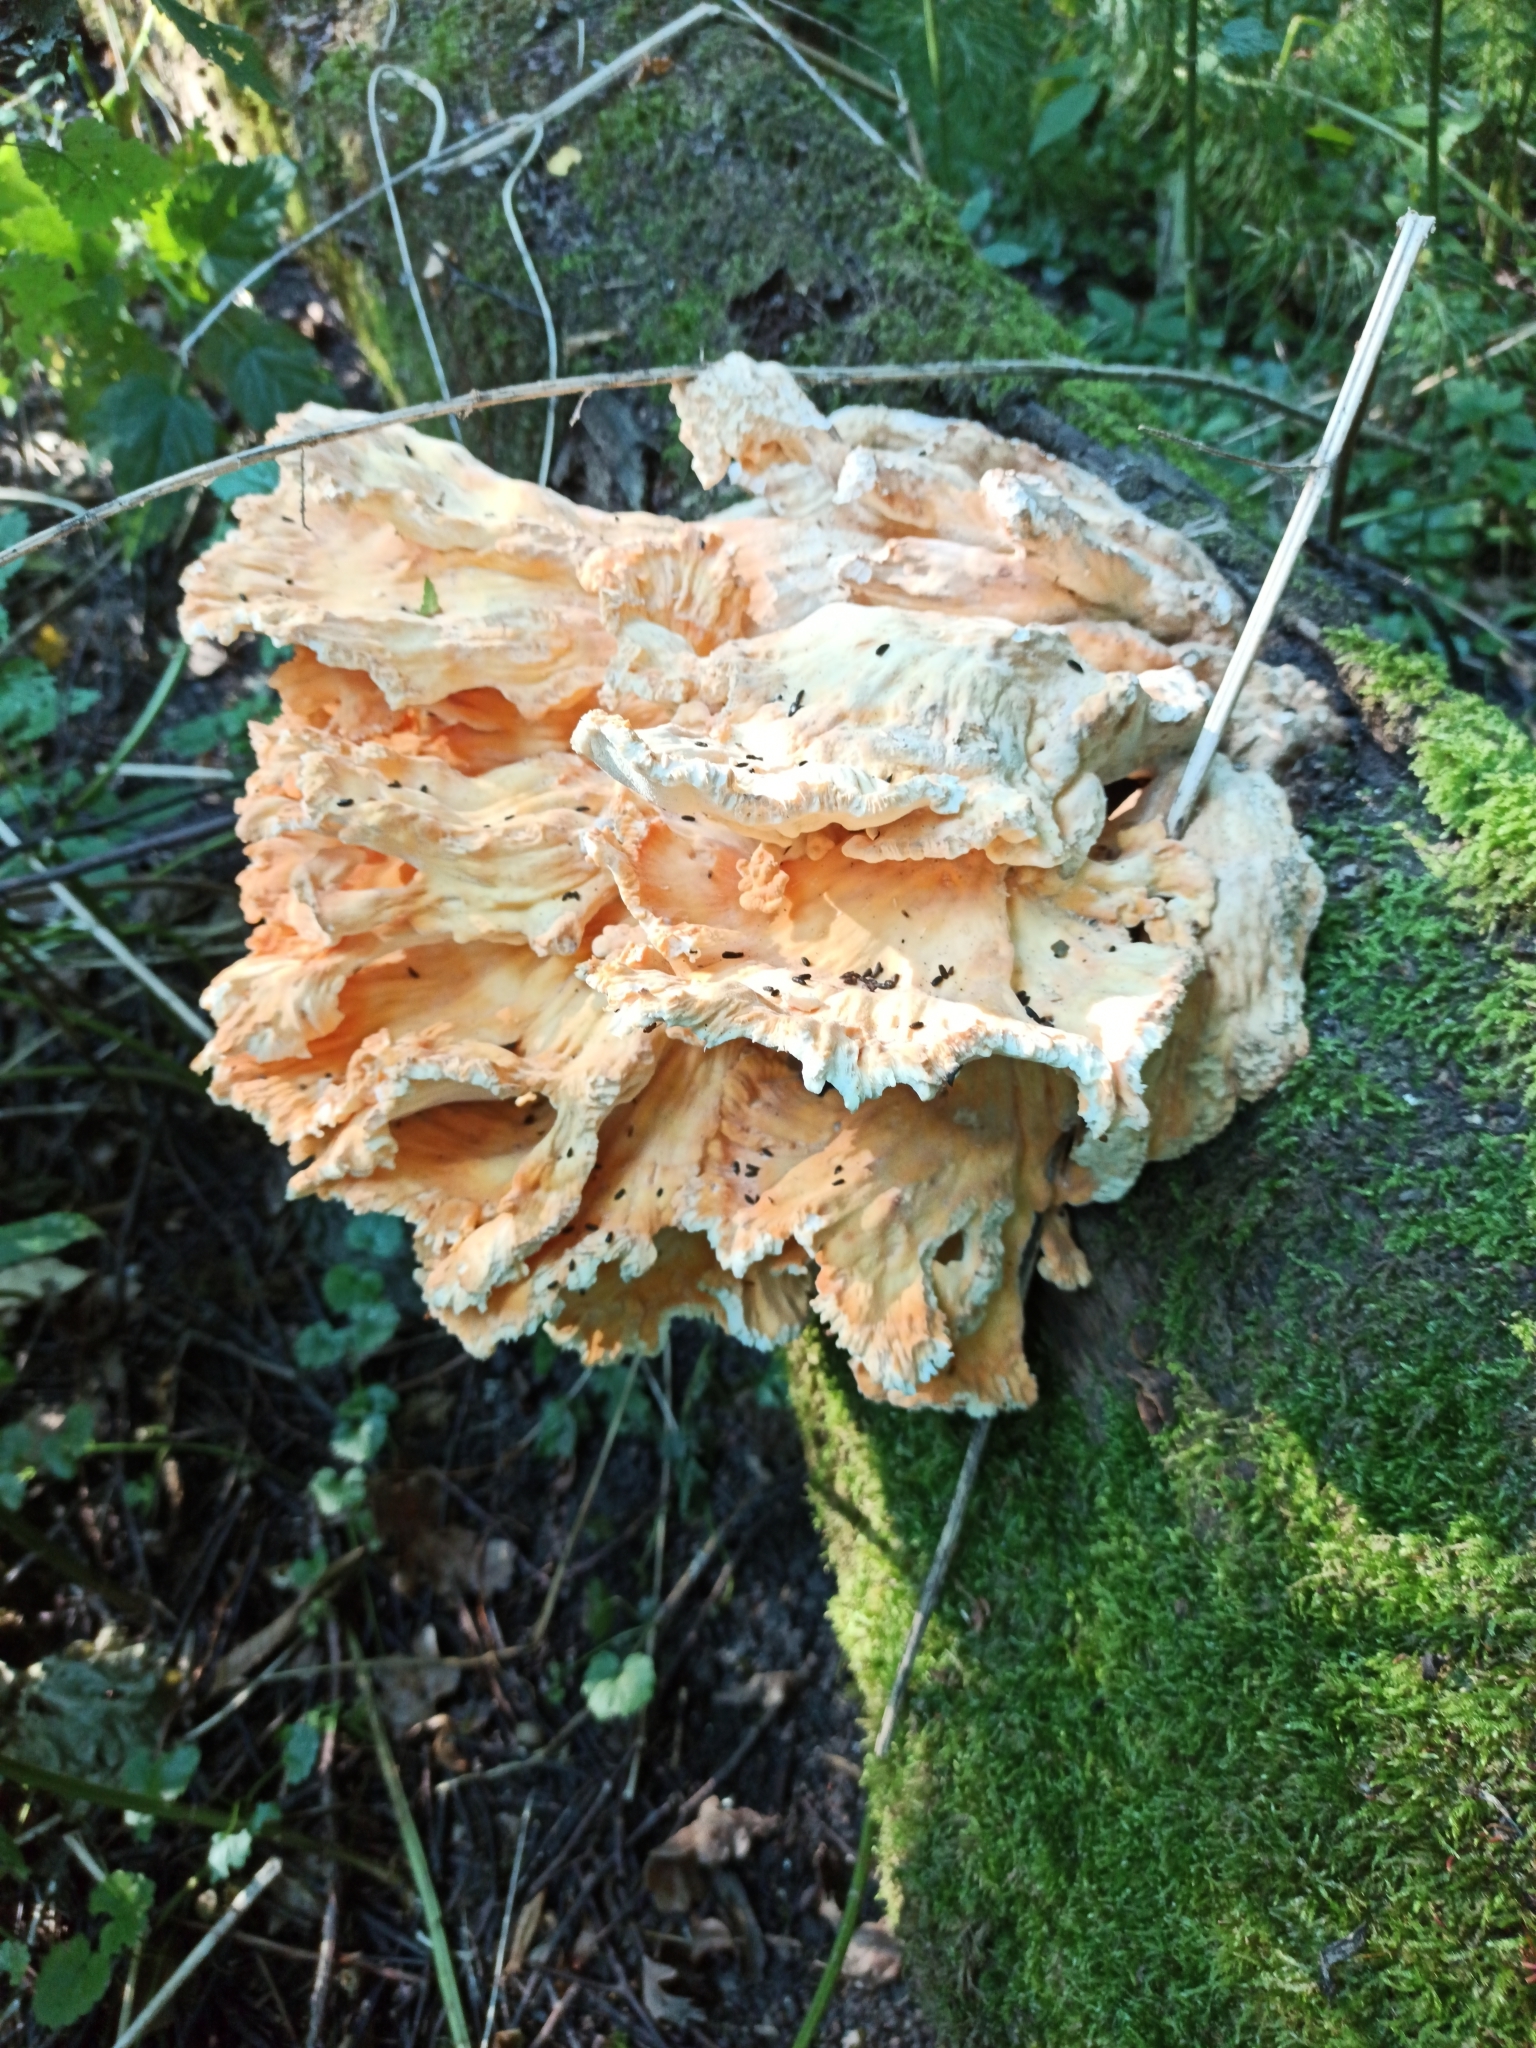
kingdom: Fungi
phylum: Basidiomycota
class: Agaricomycetes
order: Polyporales
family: Laetiporaceae
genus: Laetiporus
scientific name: Laetiporus sulphureus
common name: Chicken of the woods
